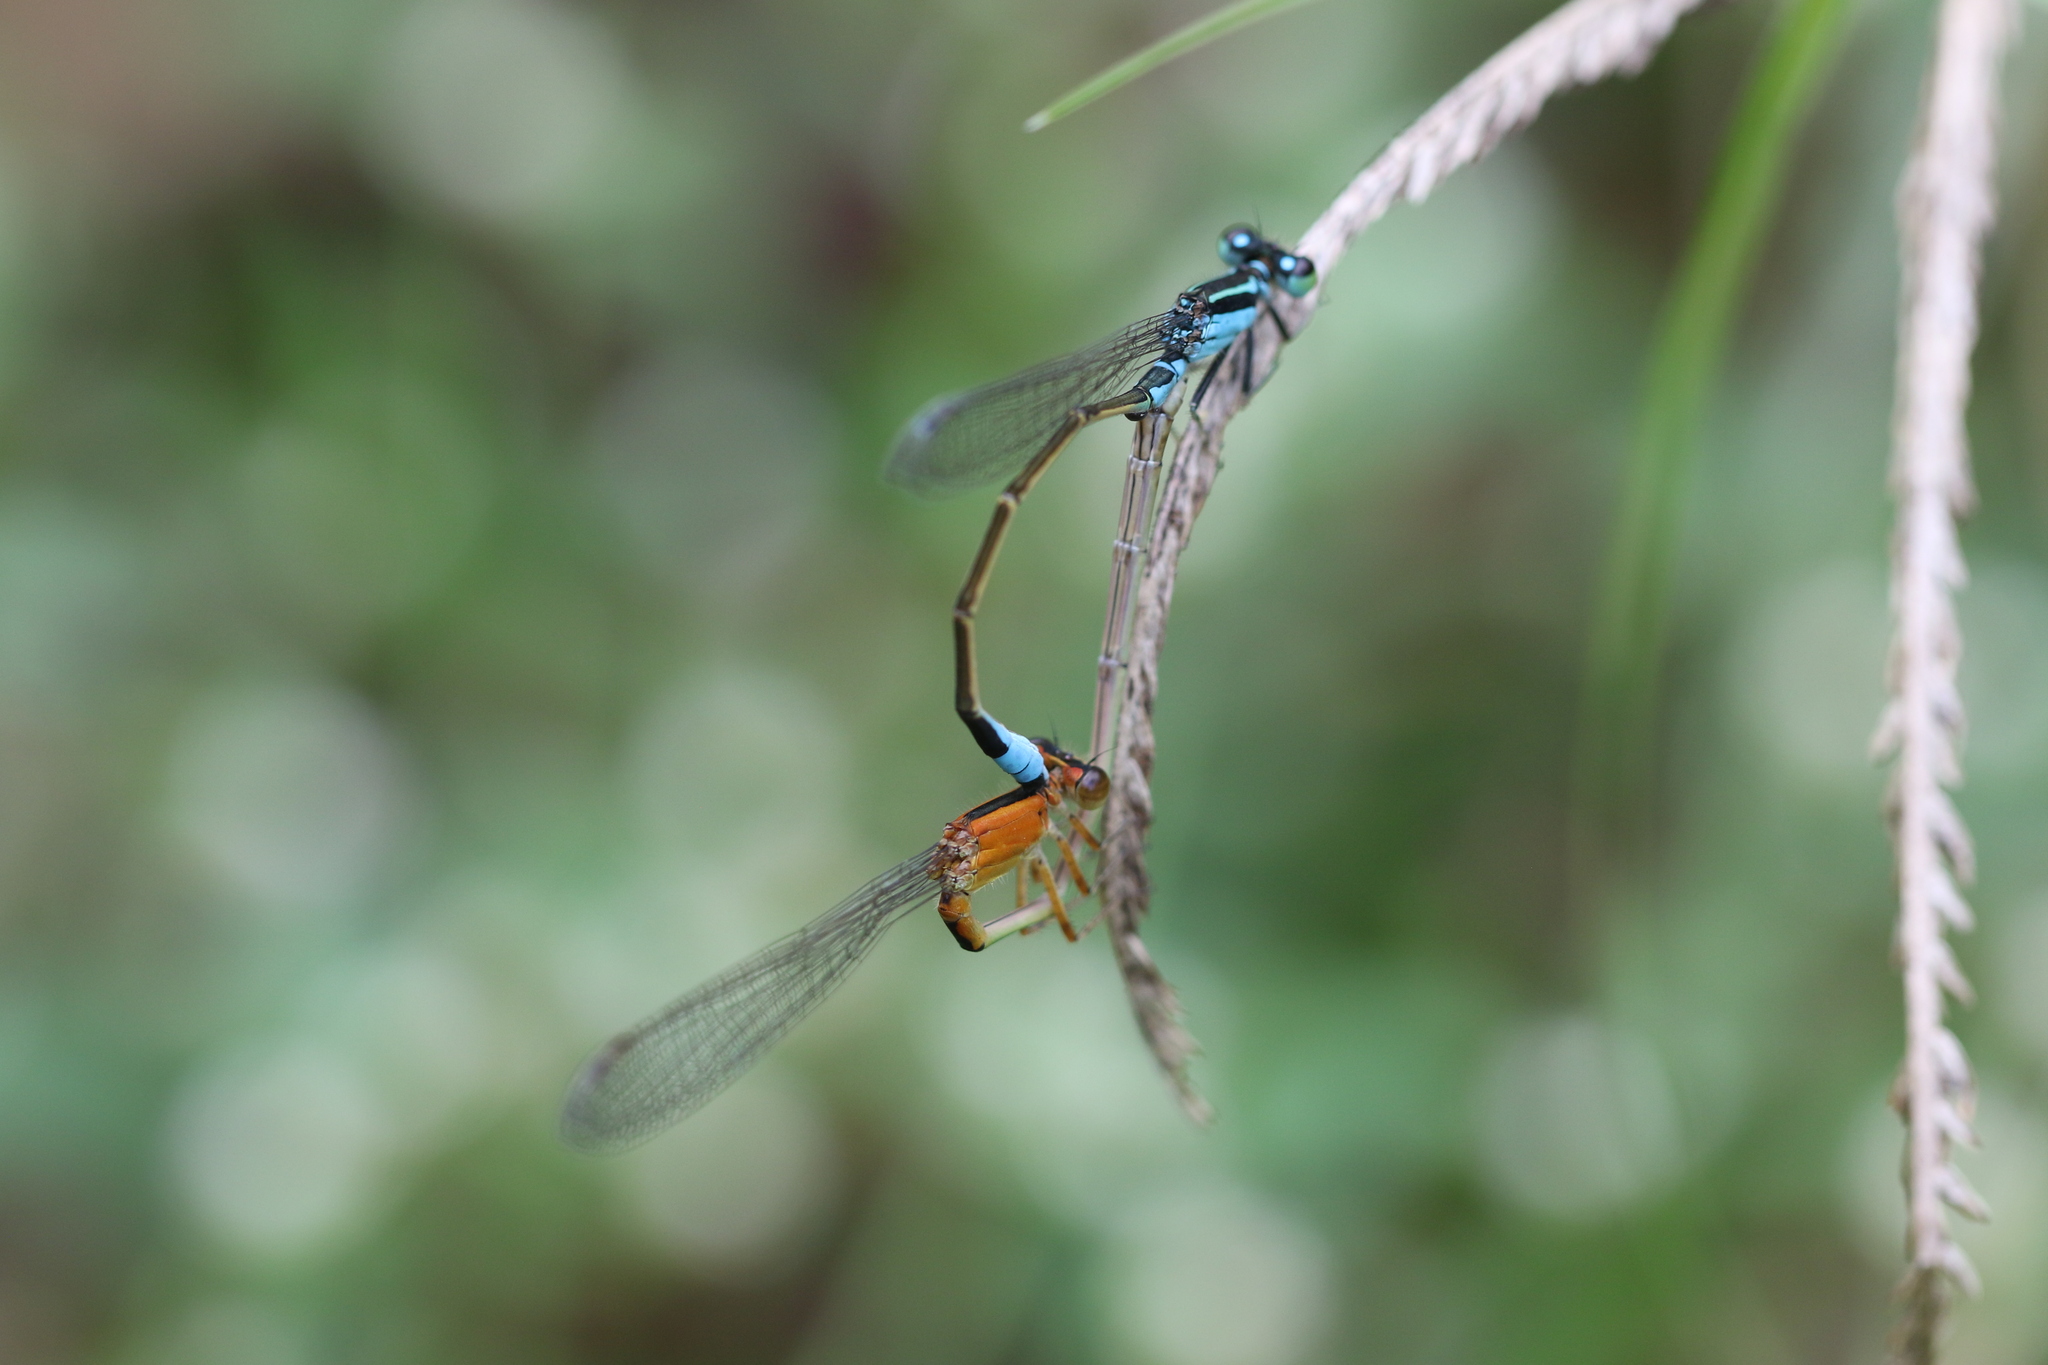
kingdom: Animalia
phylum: Arthropoda
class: Insecta
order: Odonata
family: Coenagrionidae
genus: Ischnura
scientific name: Ischnura fluviatilis
